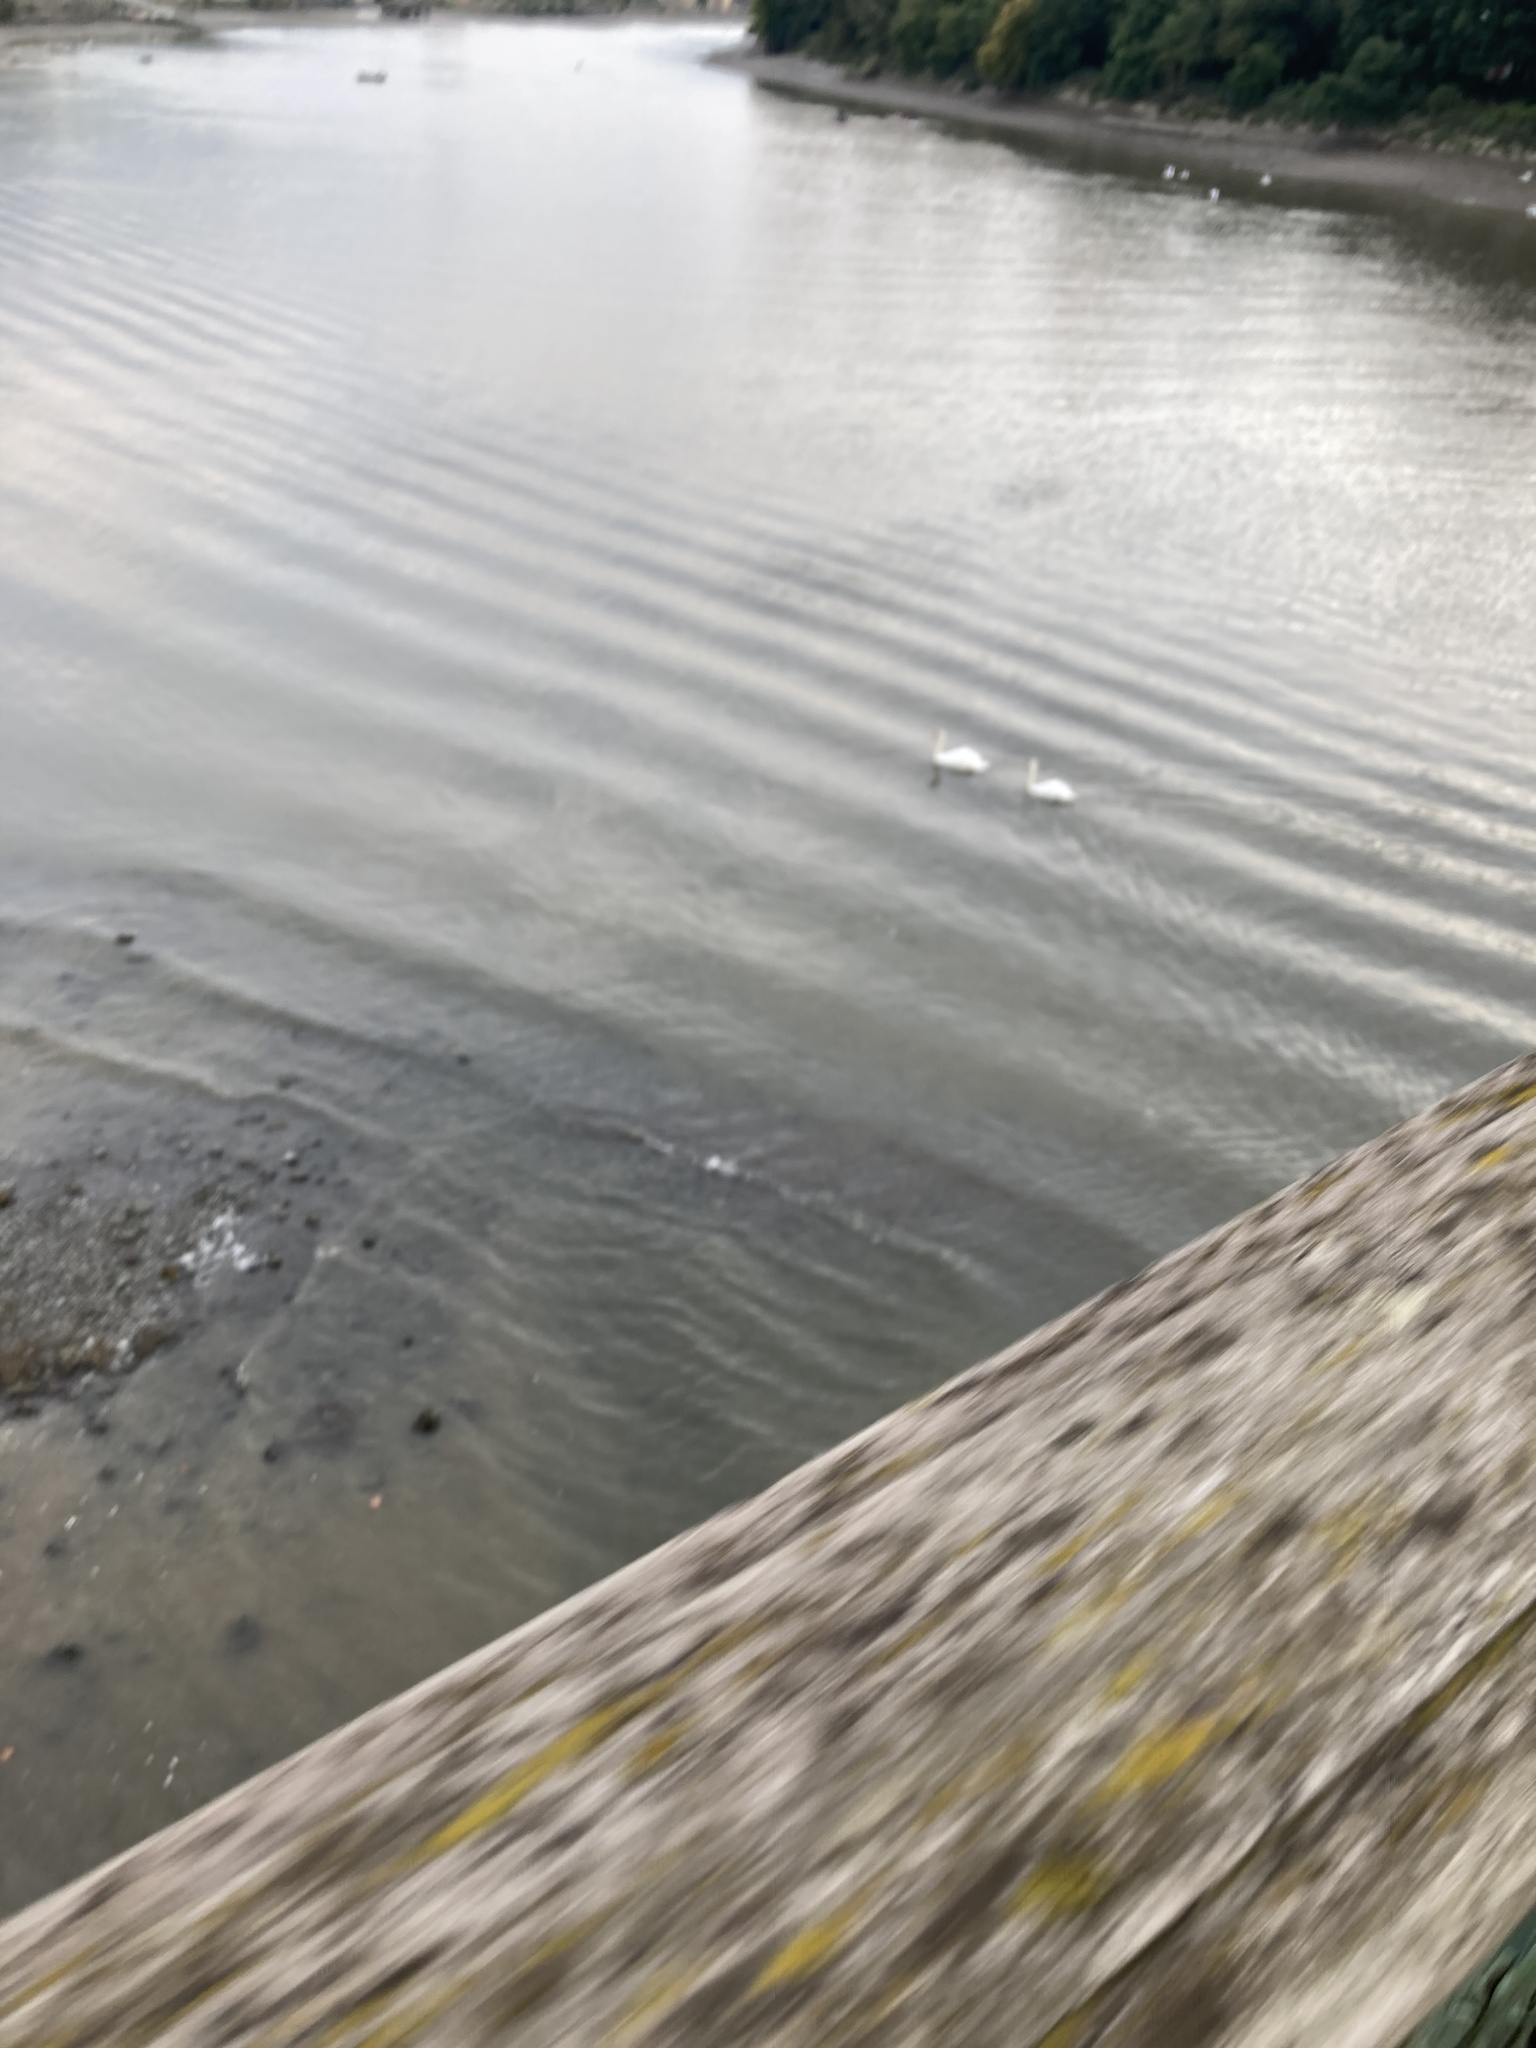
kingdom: Animalia
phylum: Chordata
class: Aves
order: Anseriformes
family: Anatidae
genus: Cygnus
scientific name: Cygnus olor
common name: Mute swan
